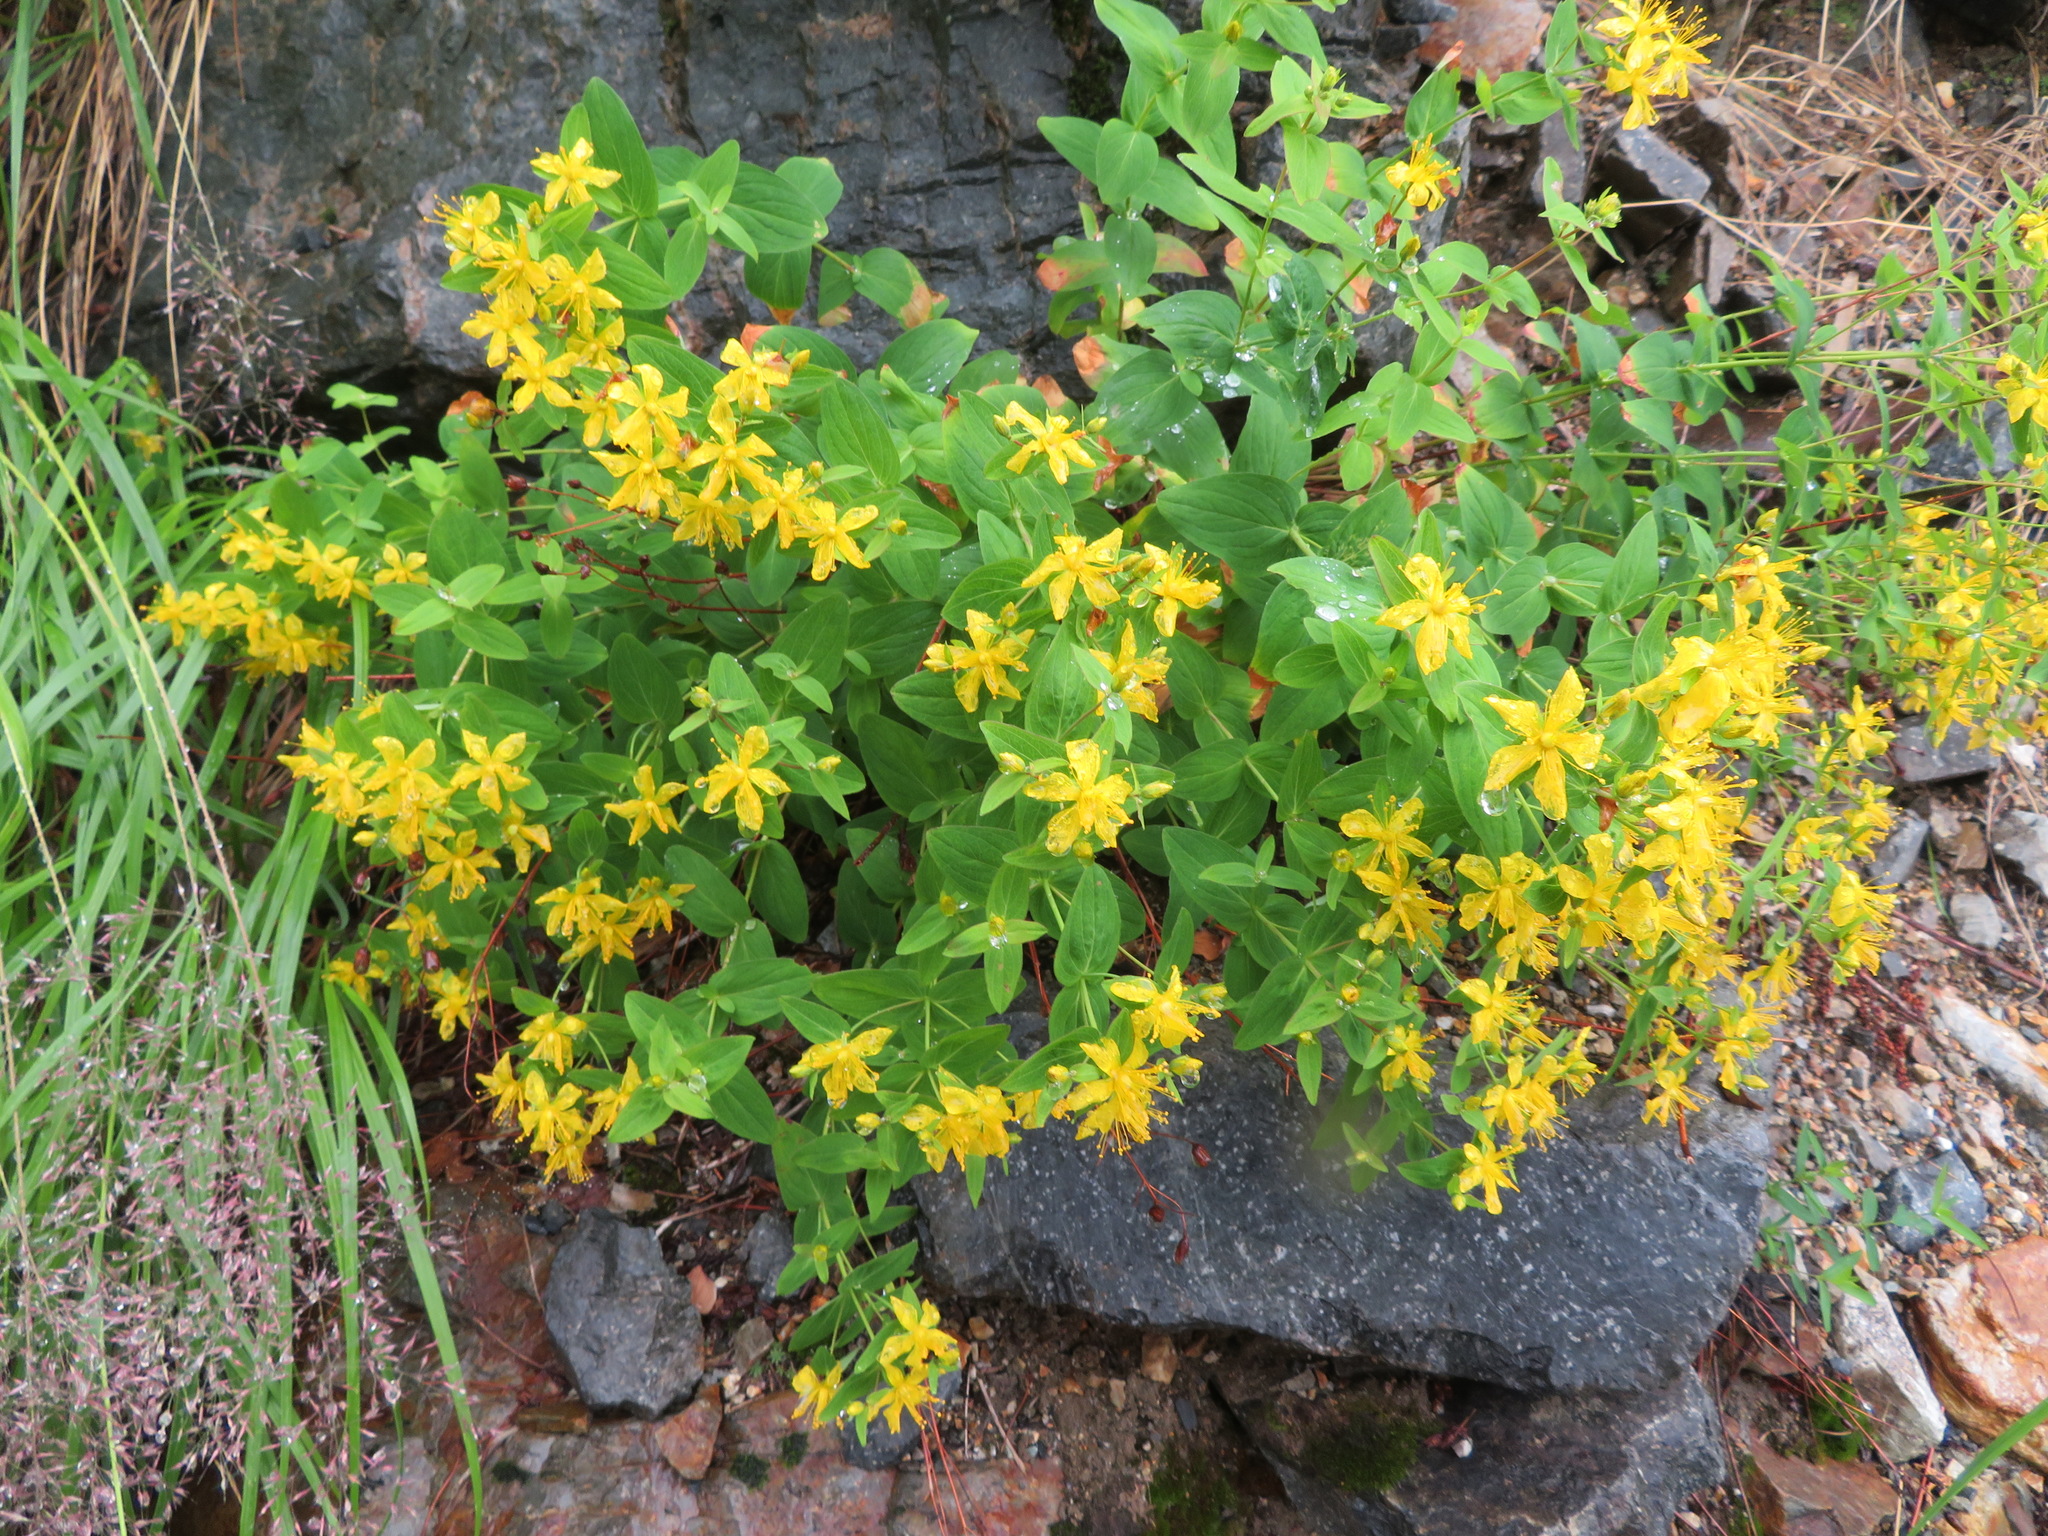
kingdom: Plantae
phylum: Tracheophyta
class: Magnoliopsida
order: Malpighiales
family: Hypericaceae
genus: Hypericum
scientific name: Hypericum kamtschaticum
